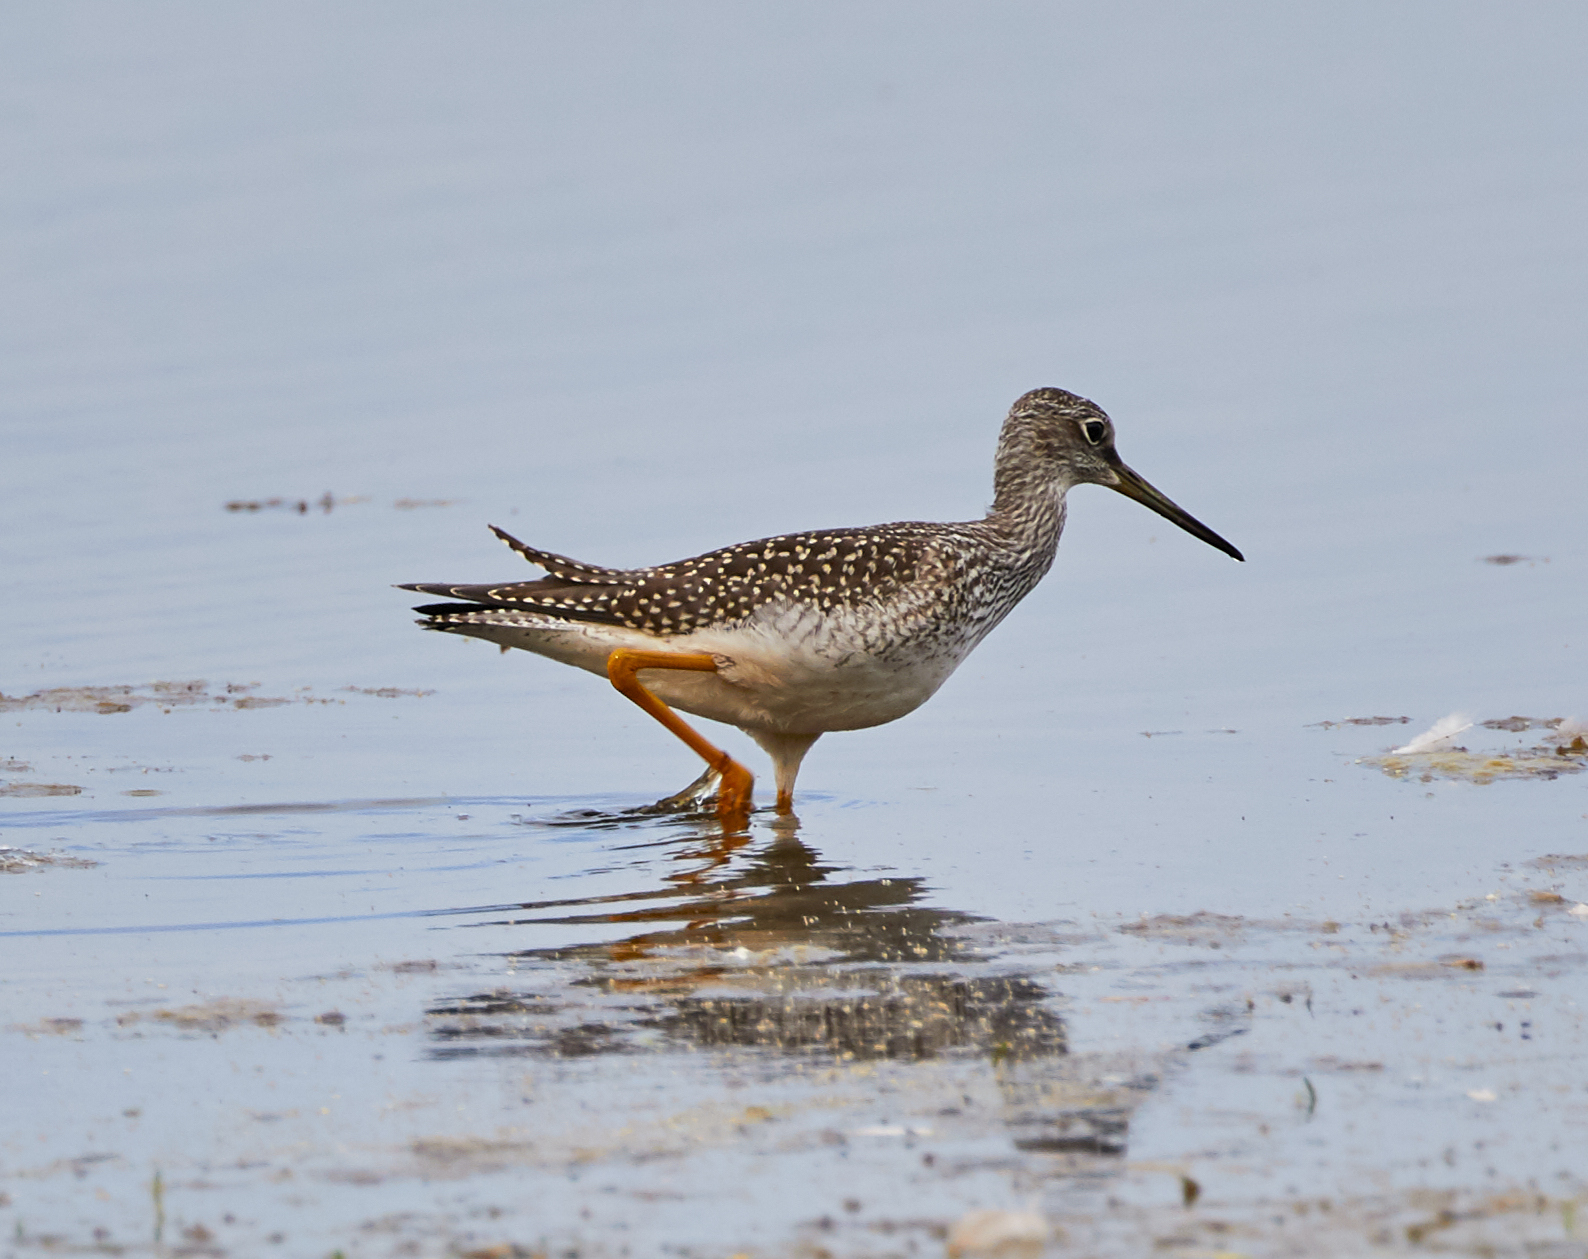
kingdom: Animalia
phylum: Chordata
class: Aves
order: Charadriiformes
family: Scolopacidae
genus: Tringa
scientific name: Tringa melanoleuca
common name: Greater yellowlegs
